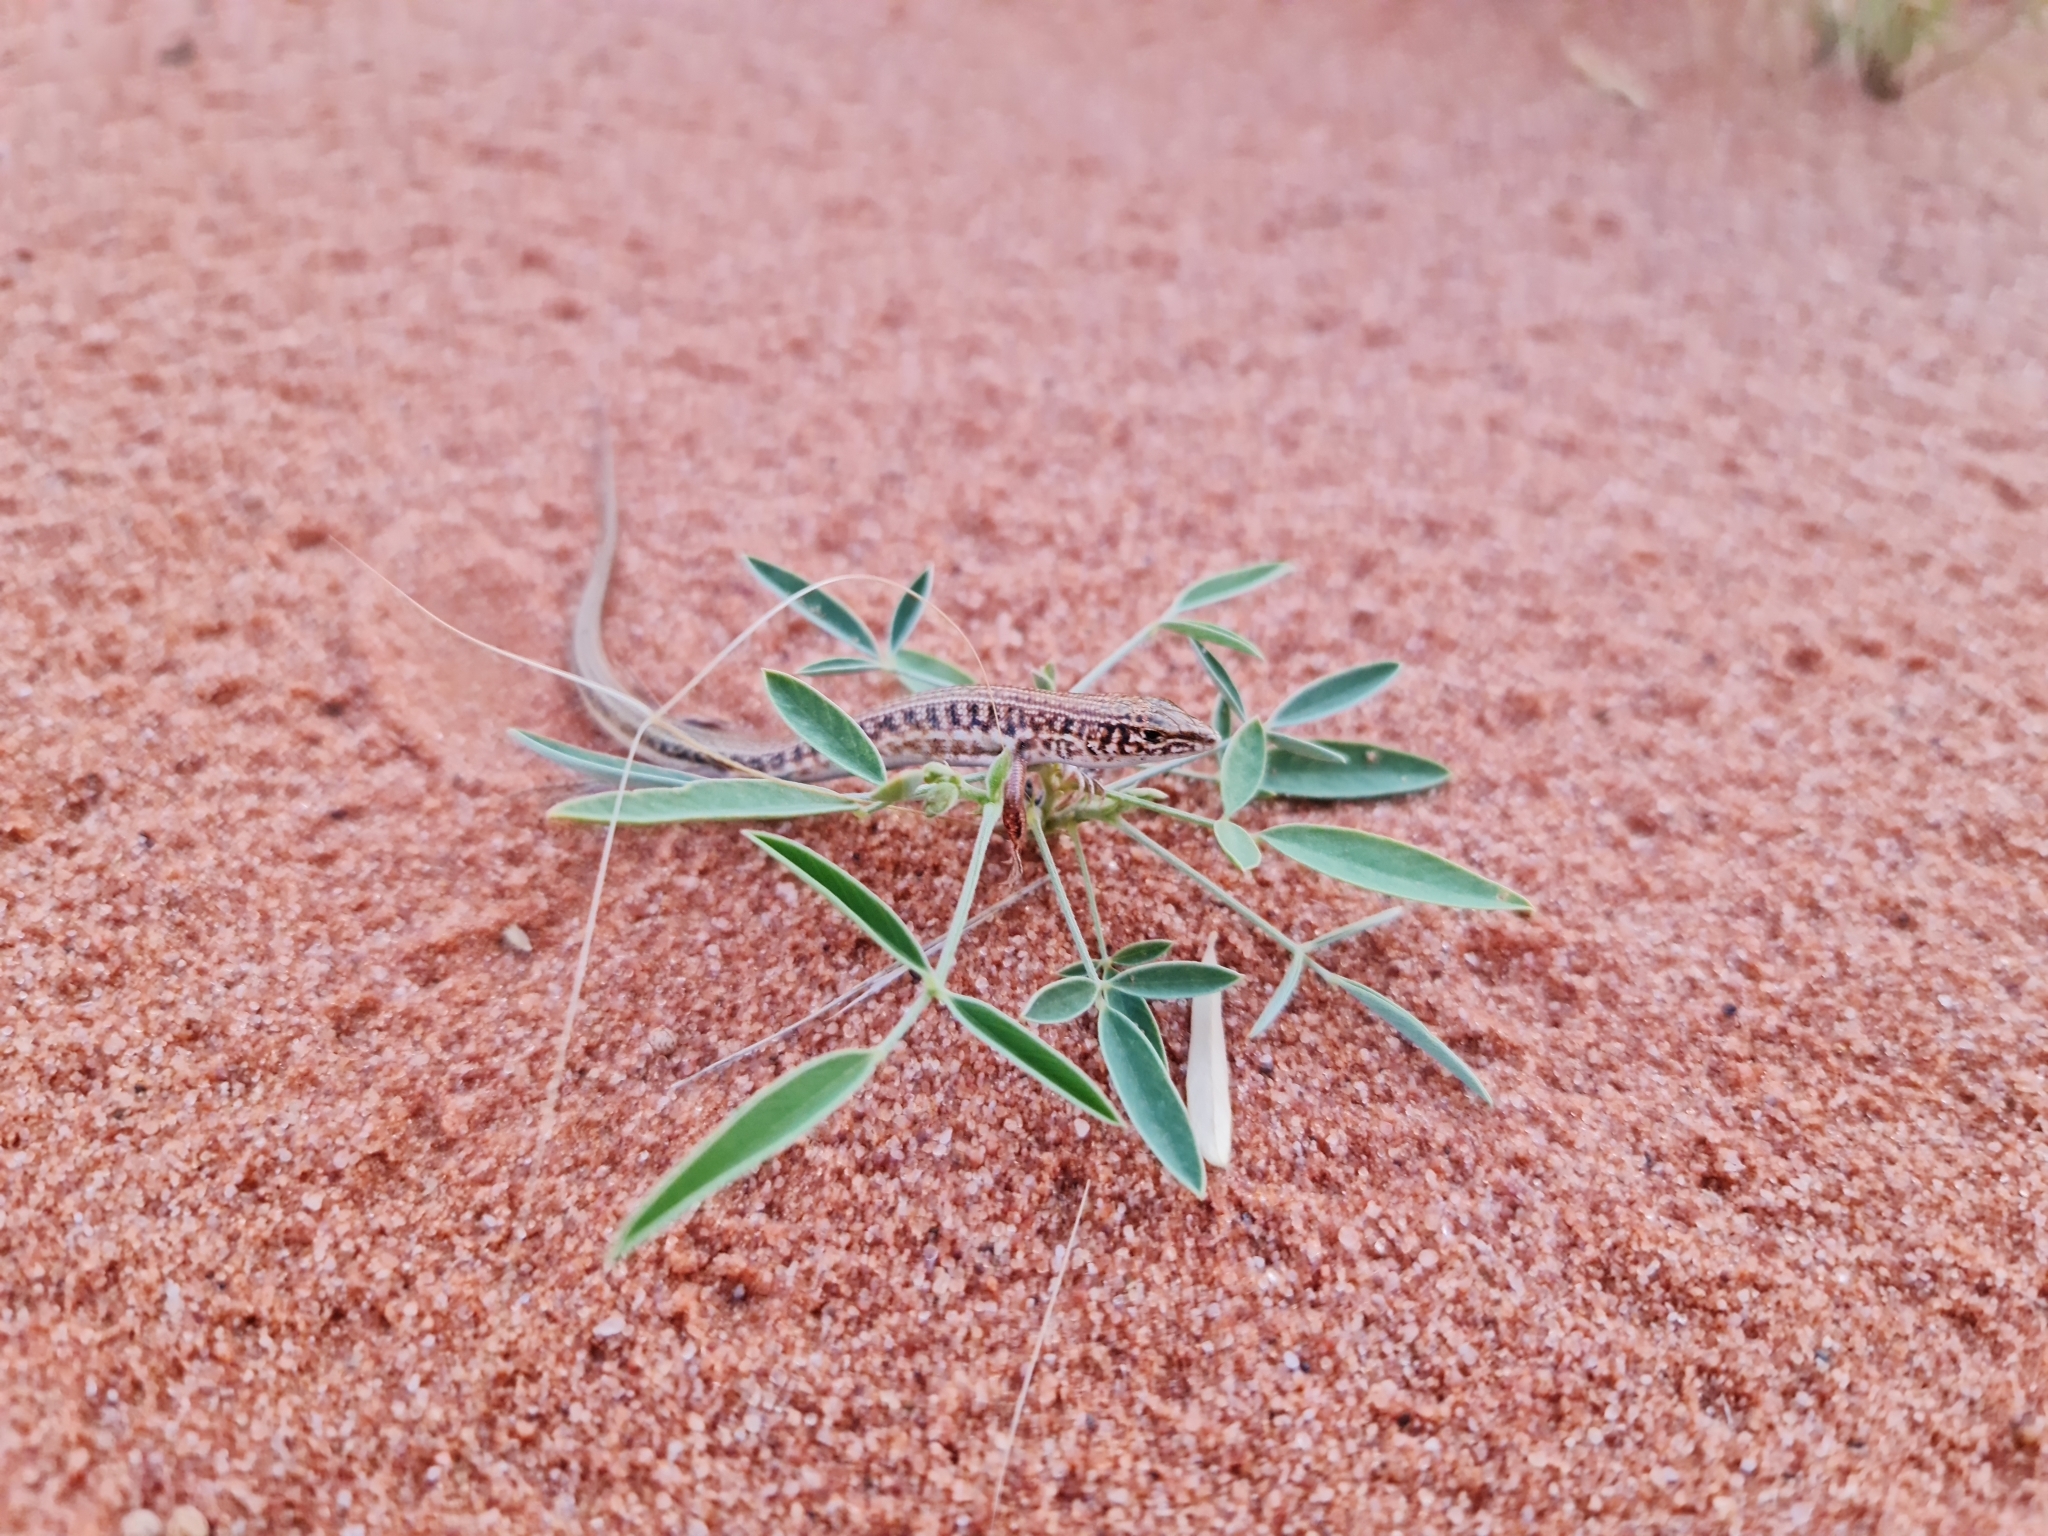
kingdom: Animalia
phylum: Chordata
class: Squamata
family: Scincidae
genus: Ctenotus
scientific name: Ctenotus taeniatus
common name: Eyrean ctenotus
